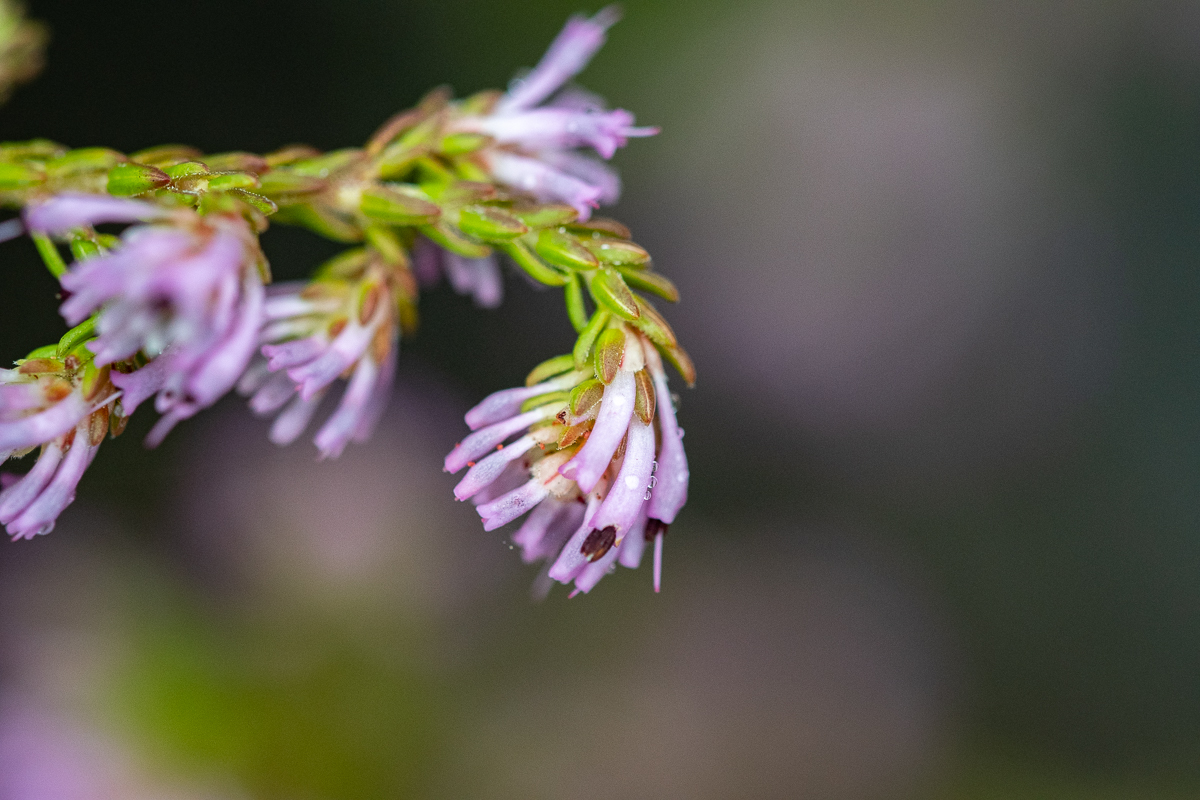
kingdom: Plantae
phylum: Tracheophyta
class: Magnoliopsida
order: Ericales
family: Ericaceae
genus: Erica
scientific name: Erica labialis
